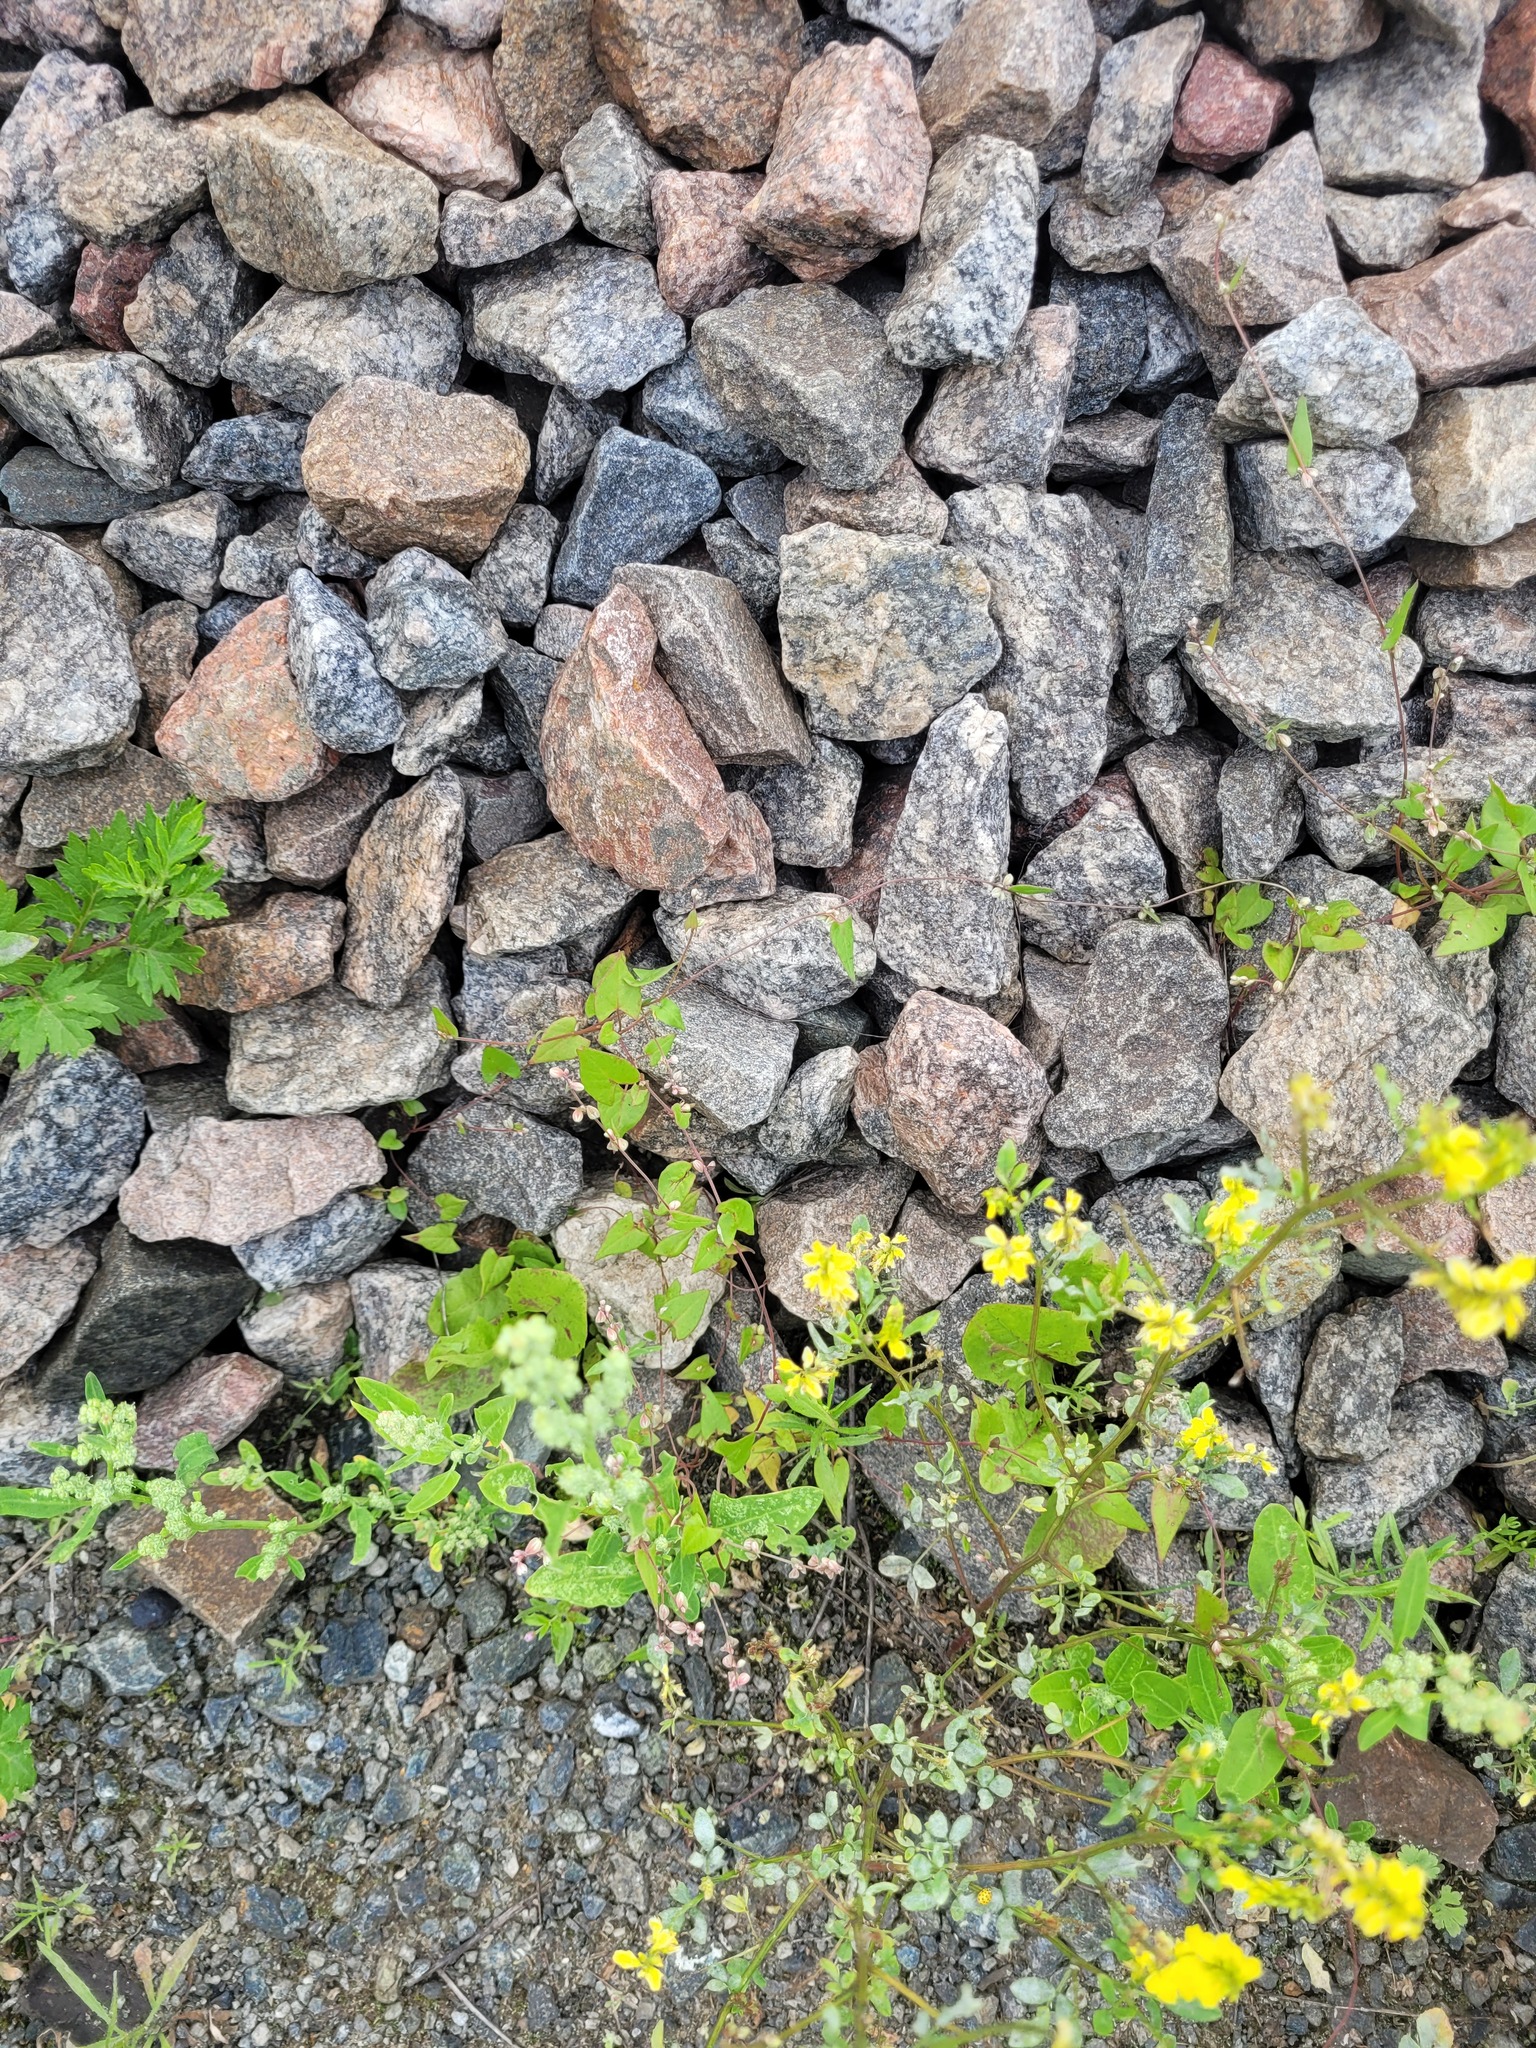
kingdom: Plantae
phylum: Tracheophyta
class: Magnoliopsida
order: Caryophyllales
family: Polygonaceae
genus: Fallopia
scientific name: Fallopia convolvulus
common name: Black bindweed
